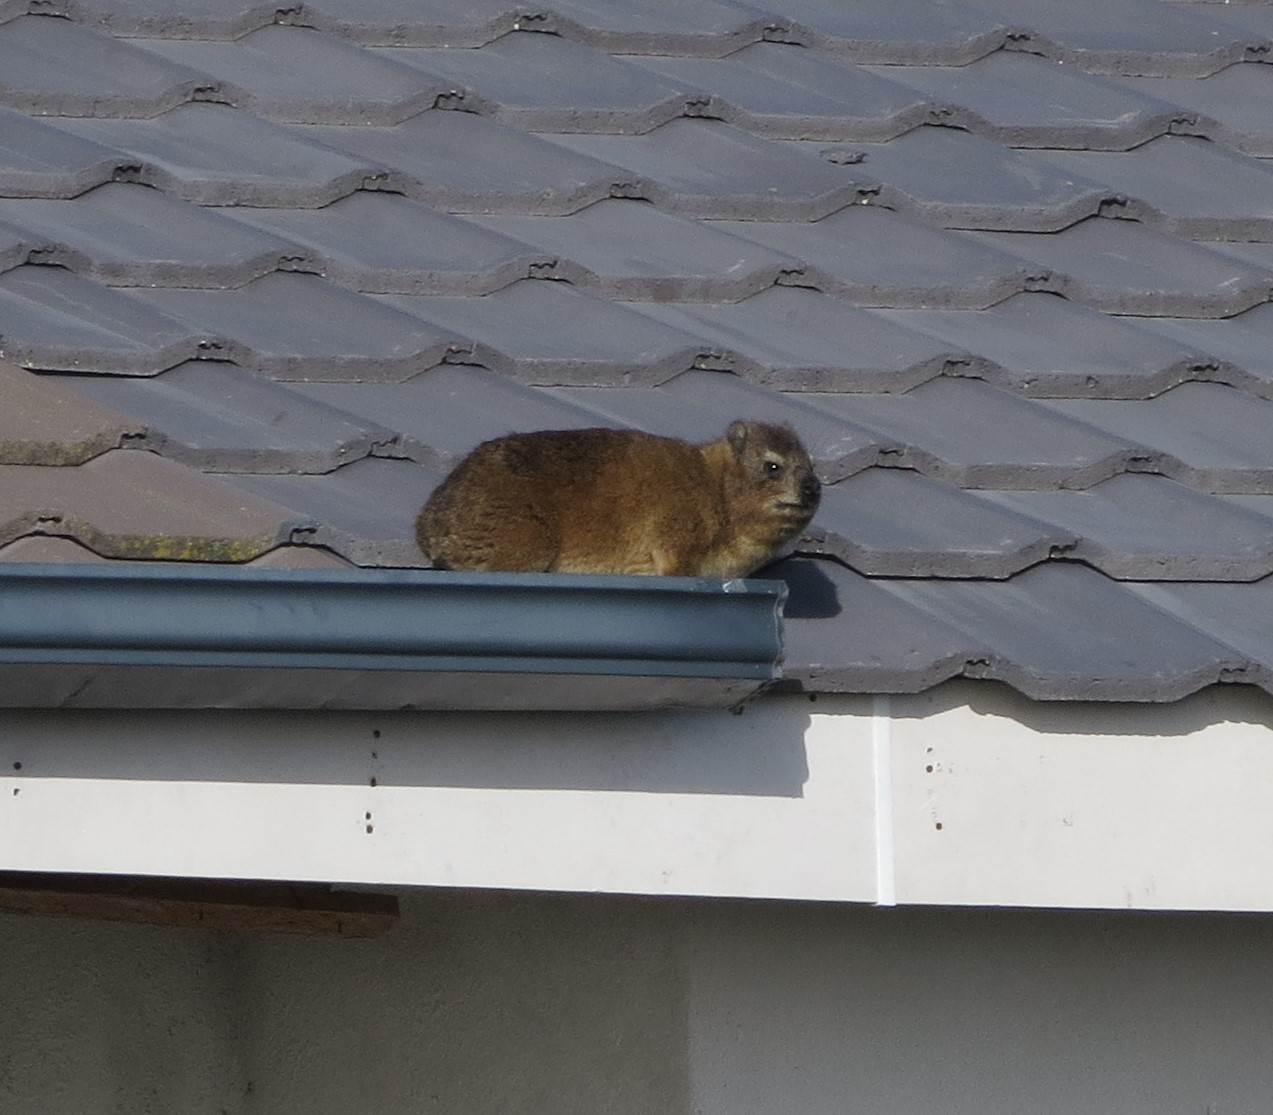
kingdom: Animalia
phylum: Chordata
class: Mammalia
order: Hyracoidea
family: Procaviidae
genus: Procavia
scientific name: Procavia capensis
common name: Rock hyrax
